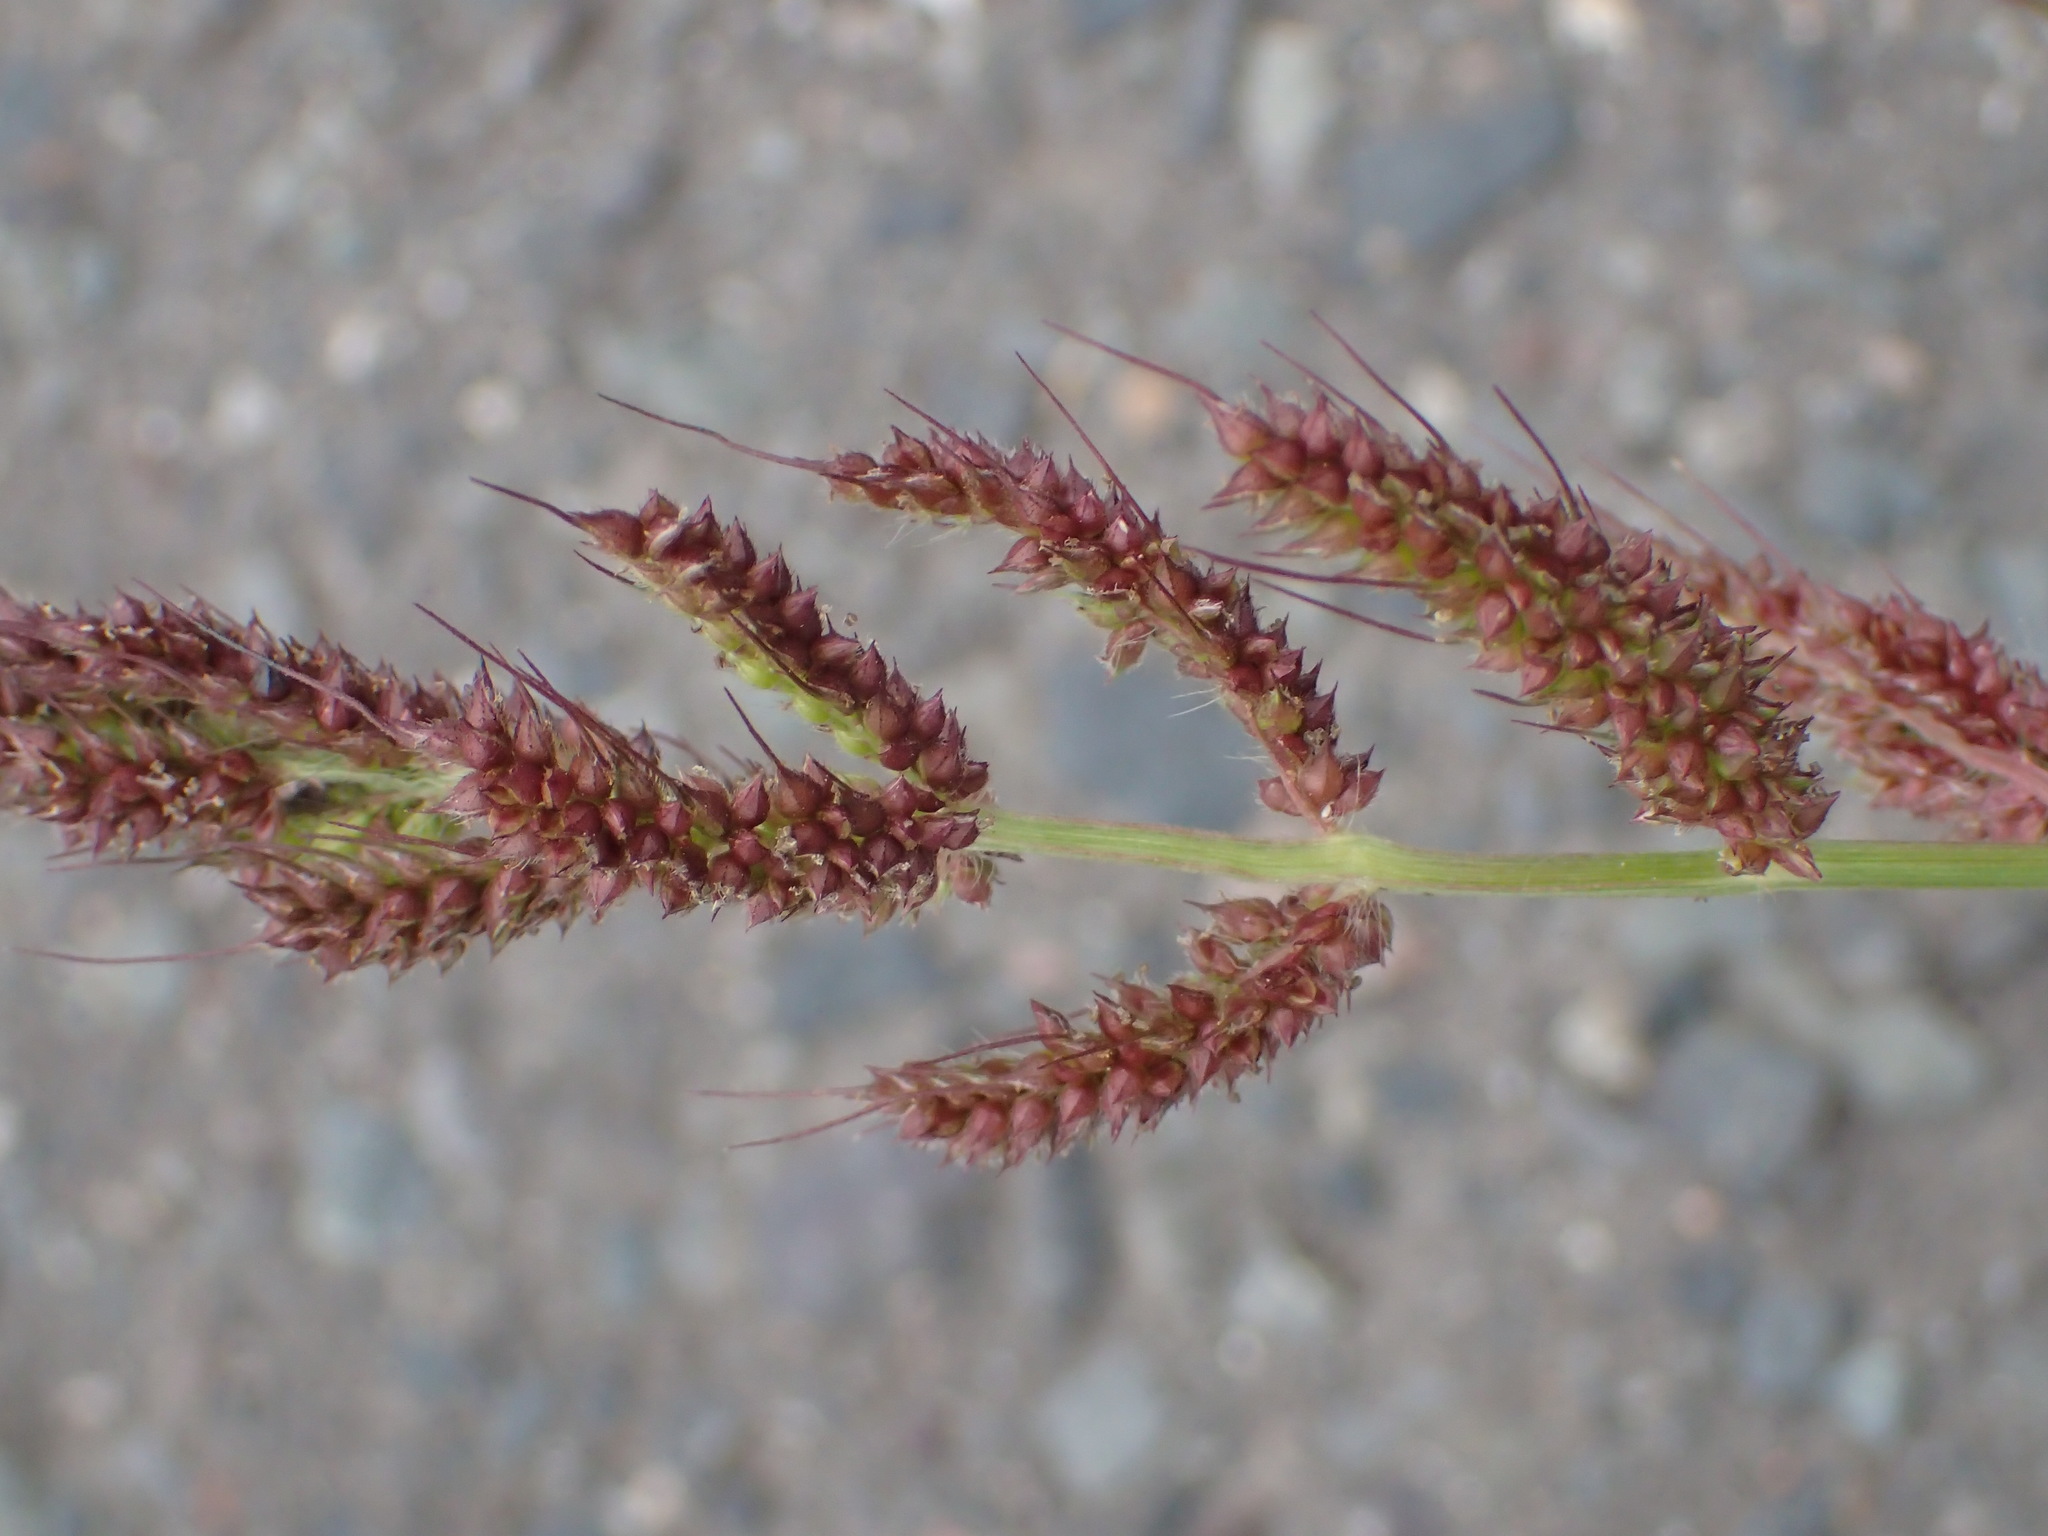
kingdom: Plantae
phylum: Tracheophyta
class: Liliopsida
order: Poales
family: Poaceae
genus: Echinochloa
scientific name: Echinochloa crus-galli
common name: Cockspur
